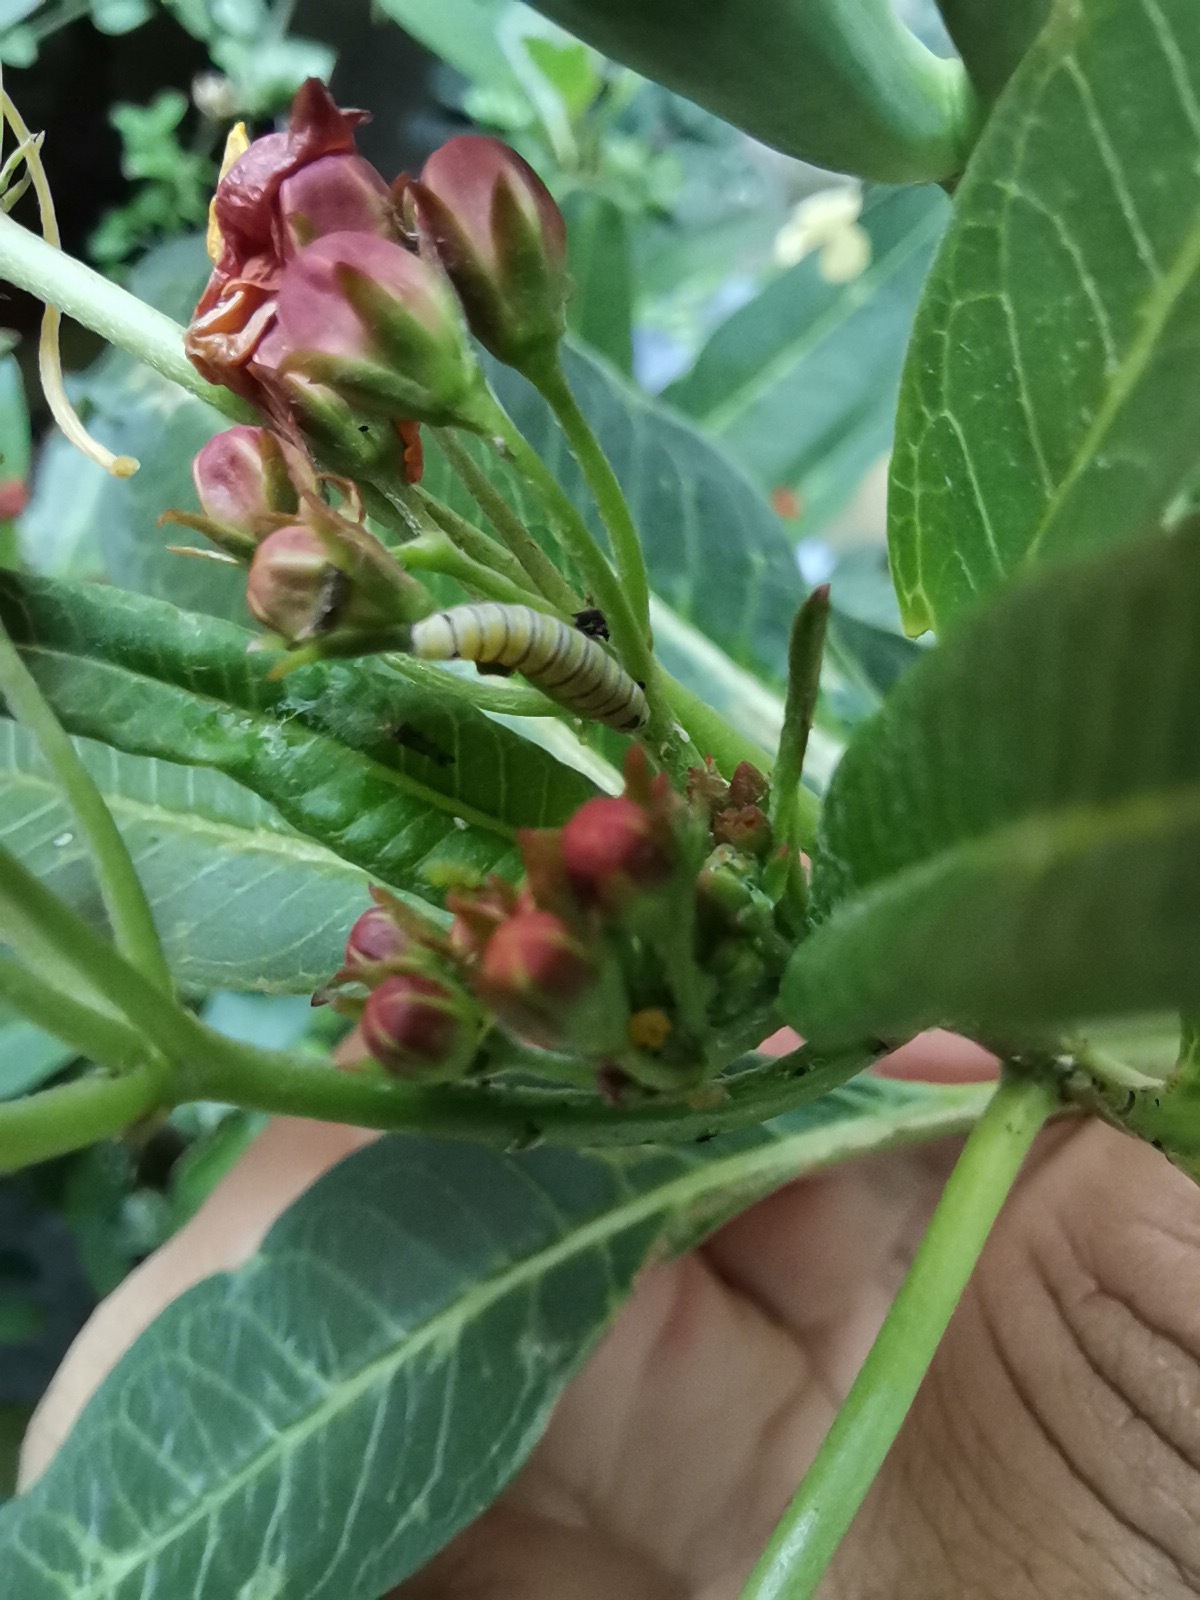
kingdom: Animalia
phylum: Arthropoda
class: Insecta
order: Lepidoptera
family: Nymphalidae
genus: Danaus
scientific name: Danaus plexippus
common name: Monarch
